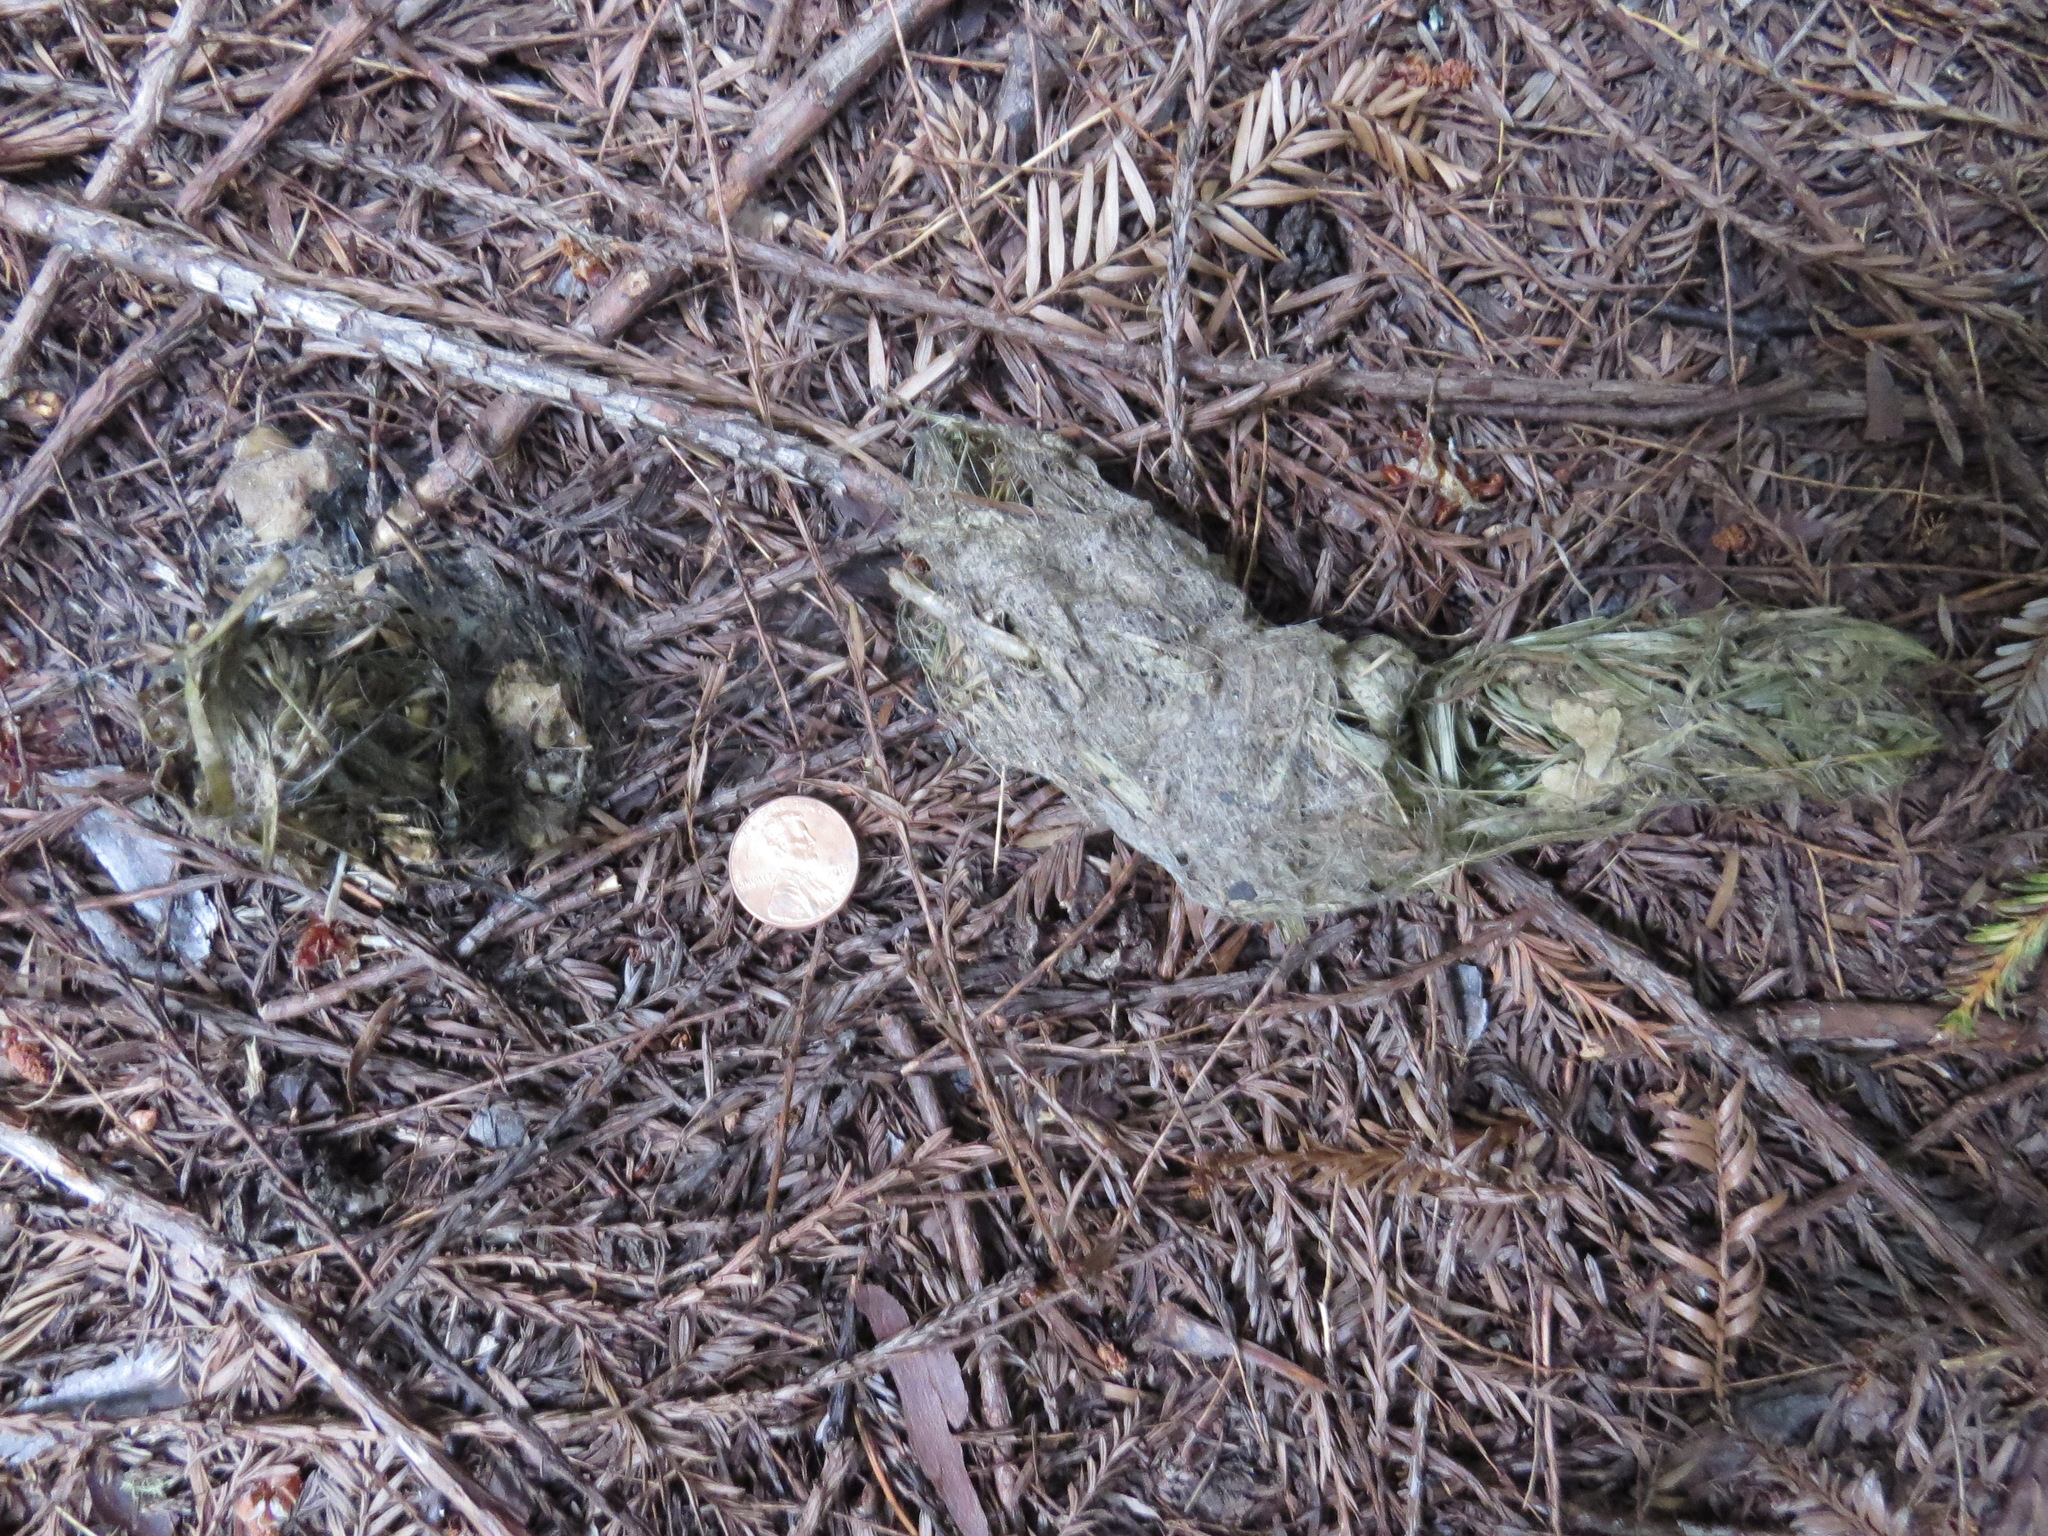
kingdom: Animalia
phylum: Chordata
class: Mammalia
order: Carnivora
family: Canidae
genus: Canis
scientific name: Canis latrans
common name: Coyote
